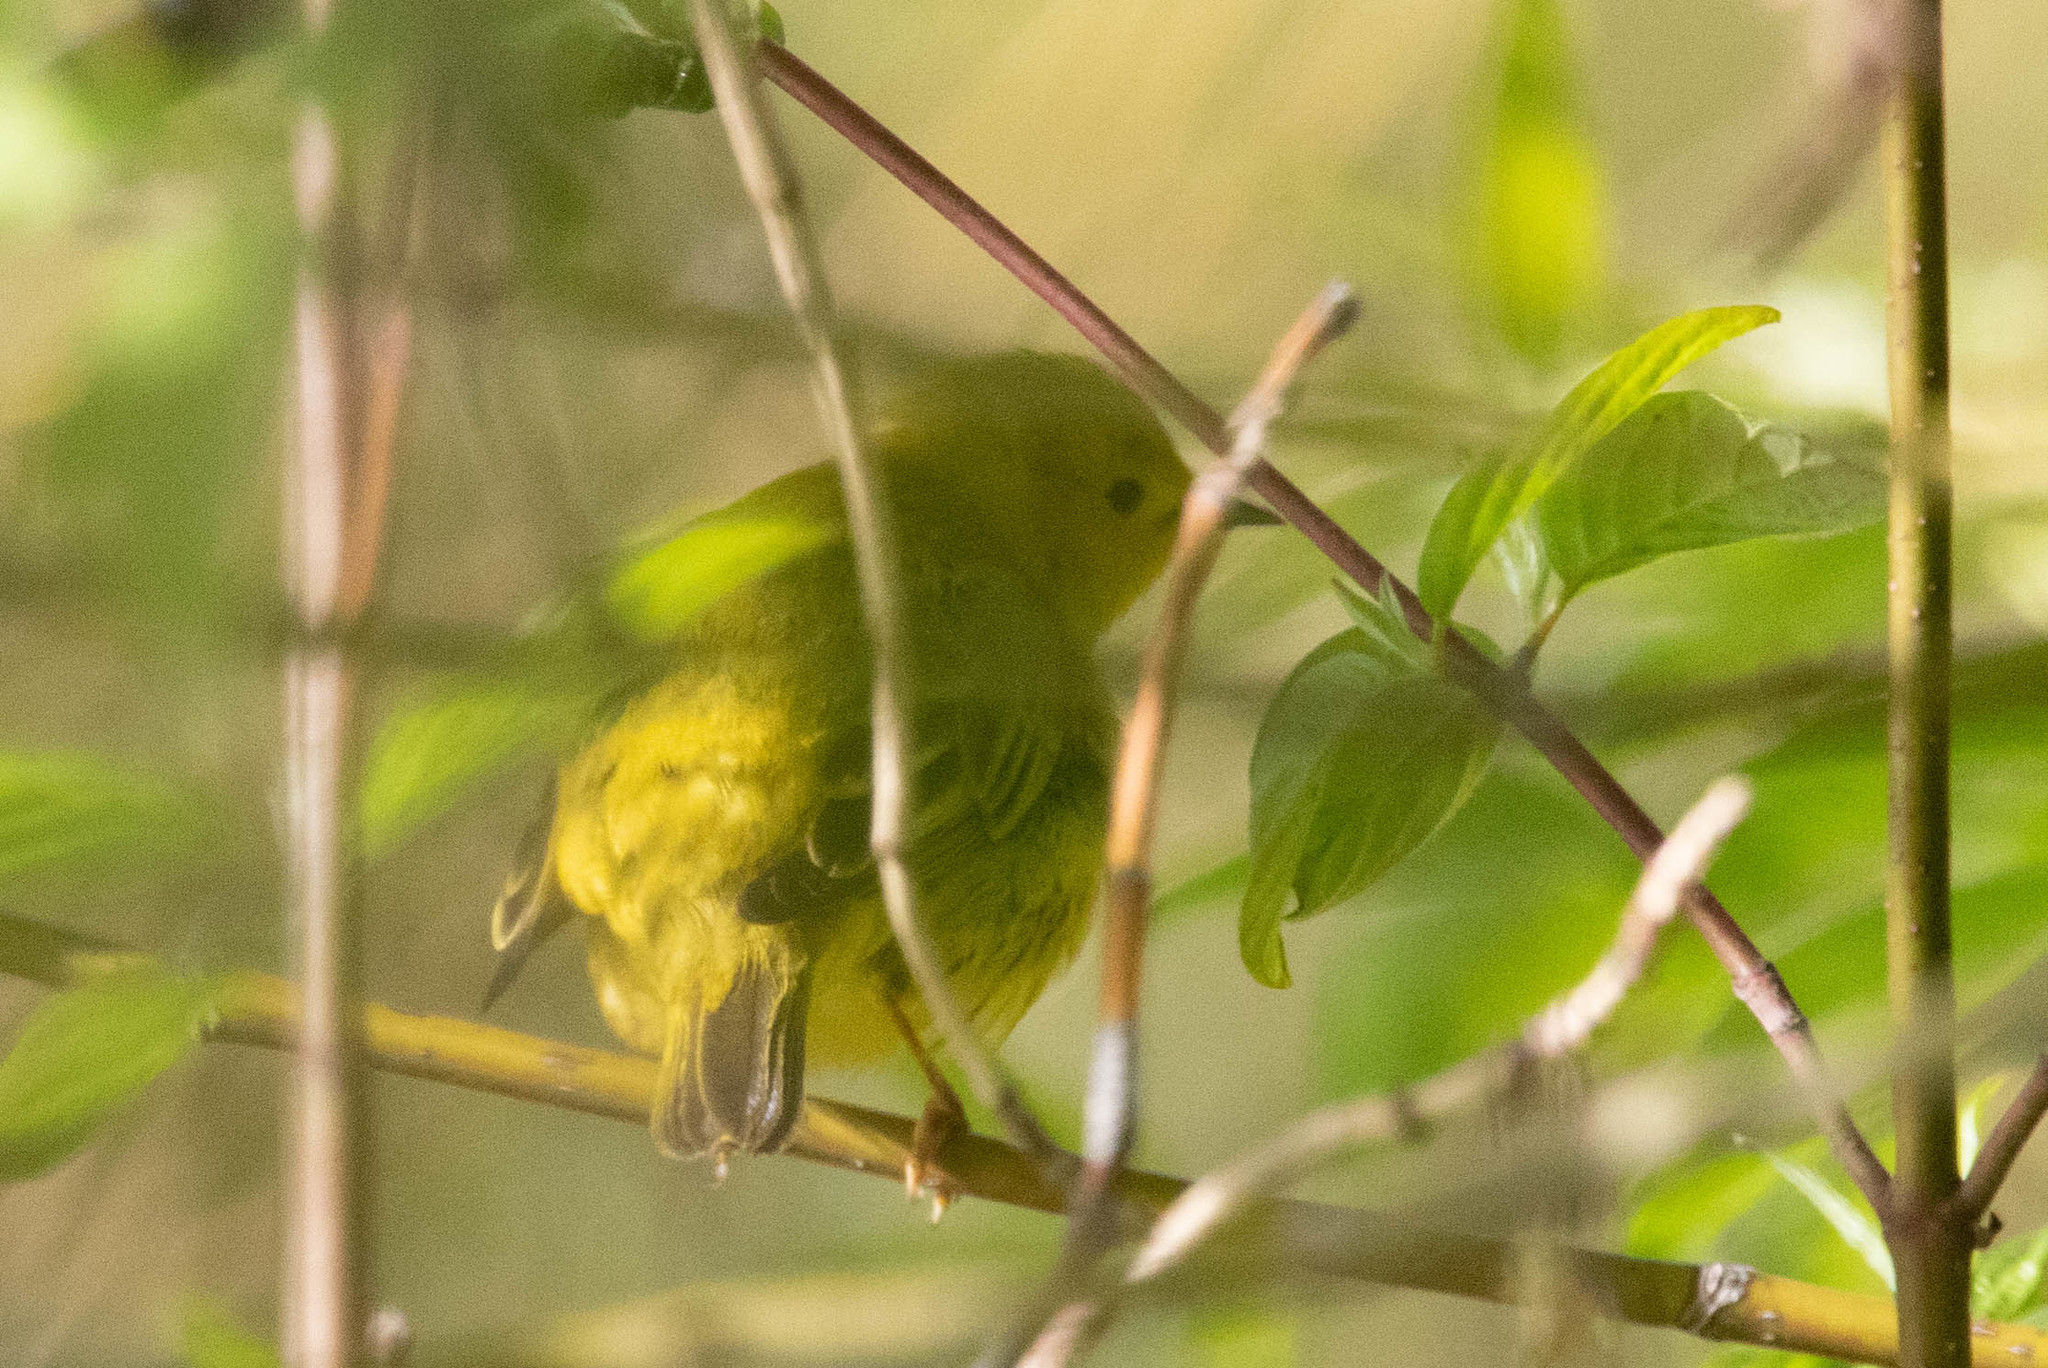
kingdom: Animalia
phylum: Chordata
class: Aves
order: Passeriformes
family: Parulidae
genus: Setophaga
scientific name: Setophaga petechia
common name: Yellow warbler
